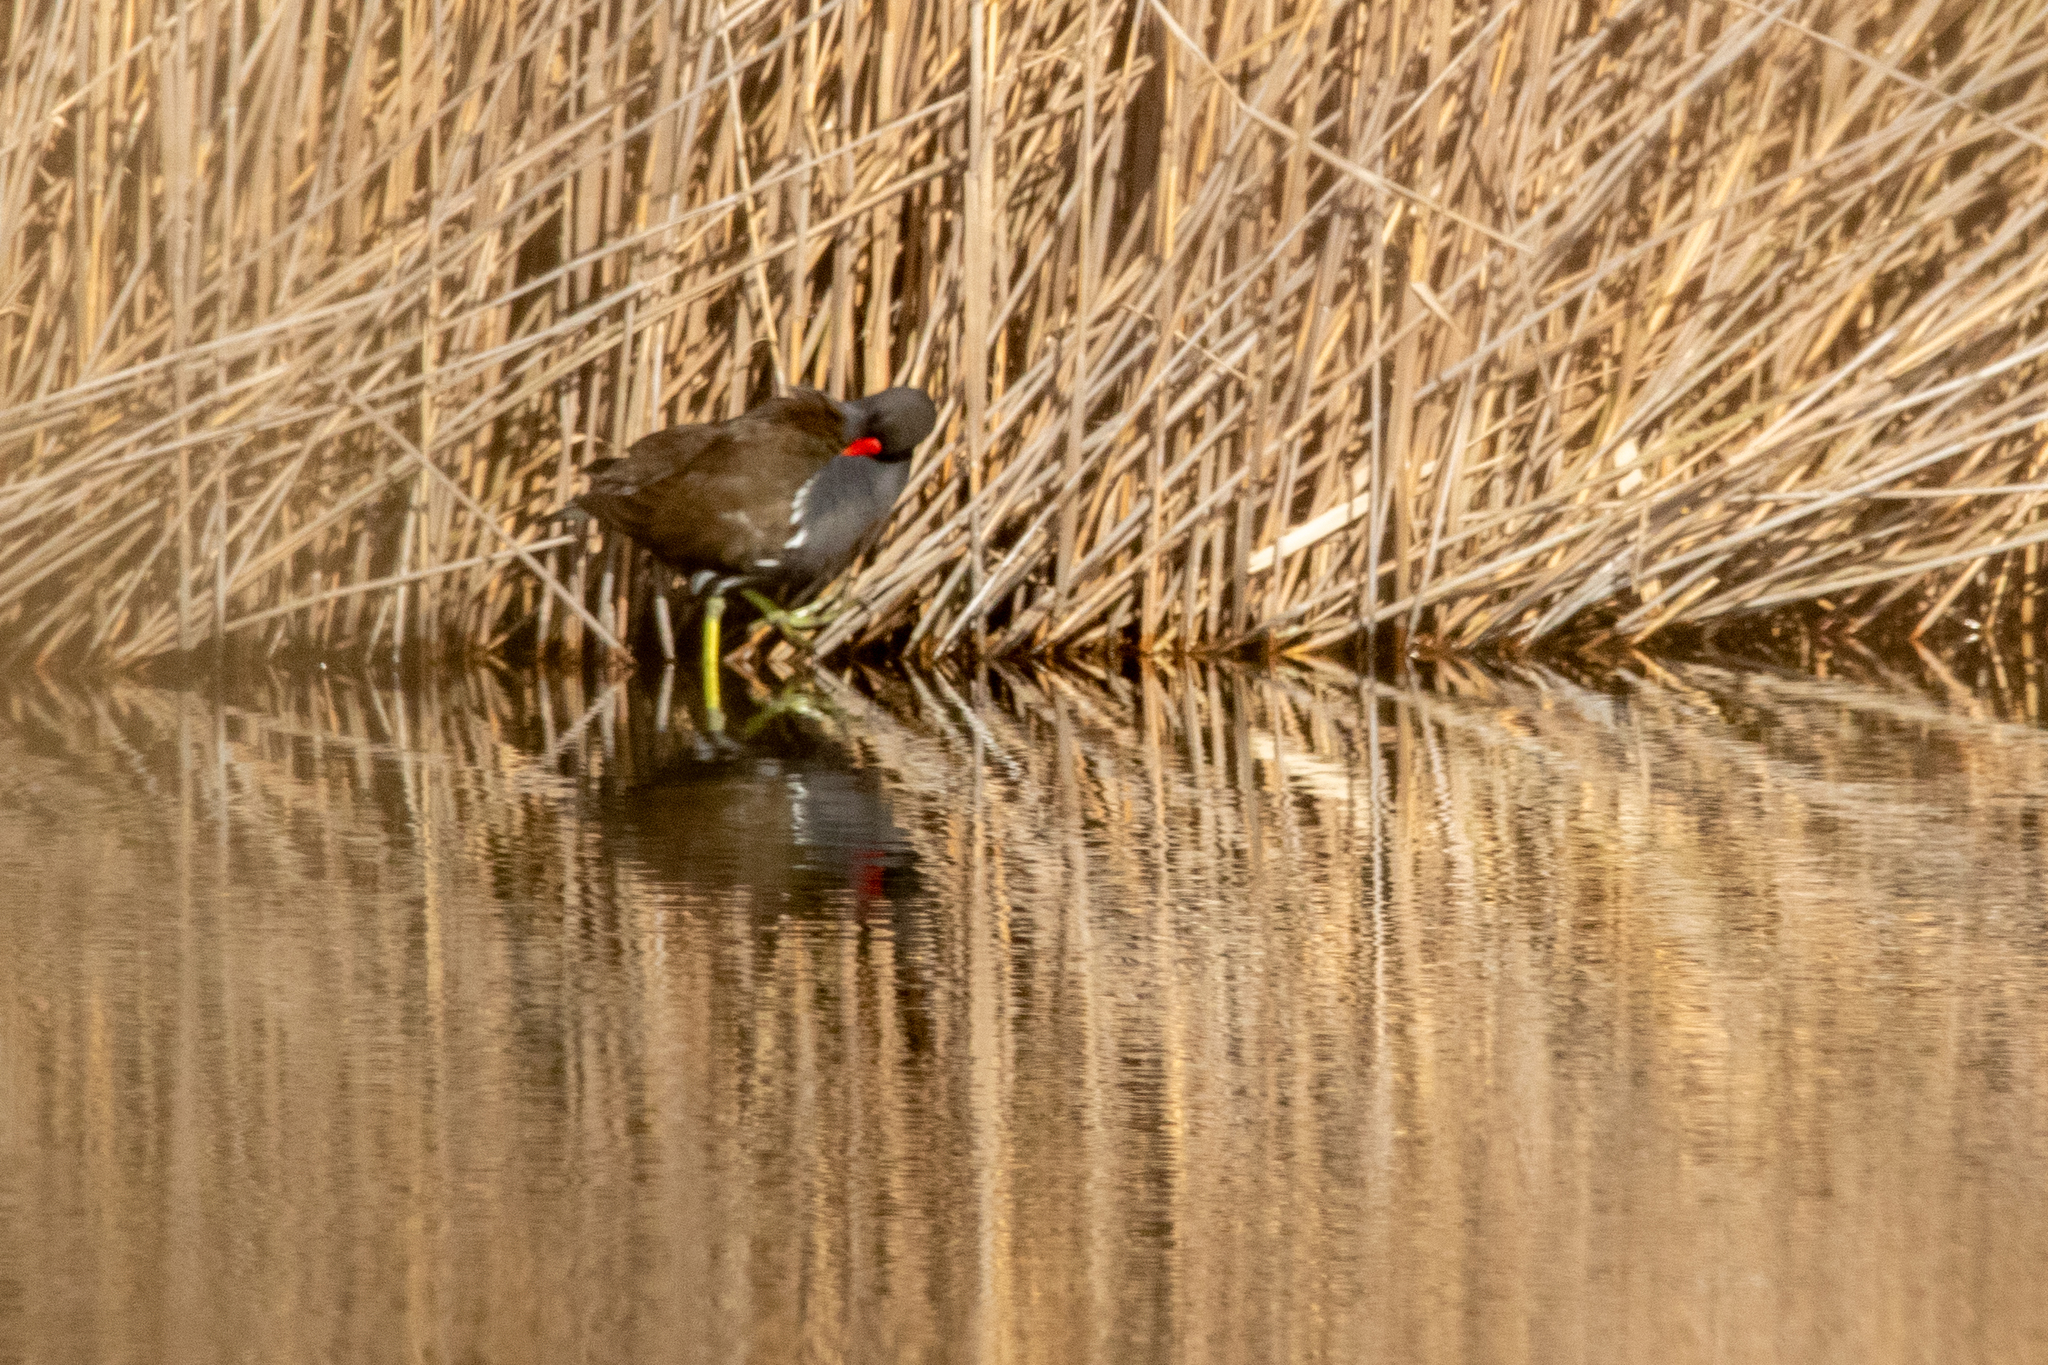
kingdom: Animalia
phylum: Chordata
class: Aves
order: Gruiformes
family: Rallidae
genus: Gallinula
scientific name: Gallinula chloropus
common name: Common moorhen
